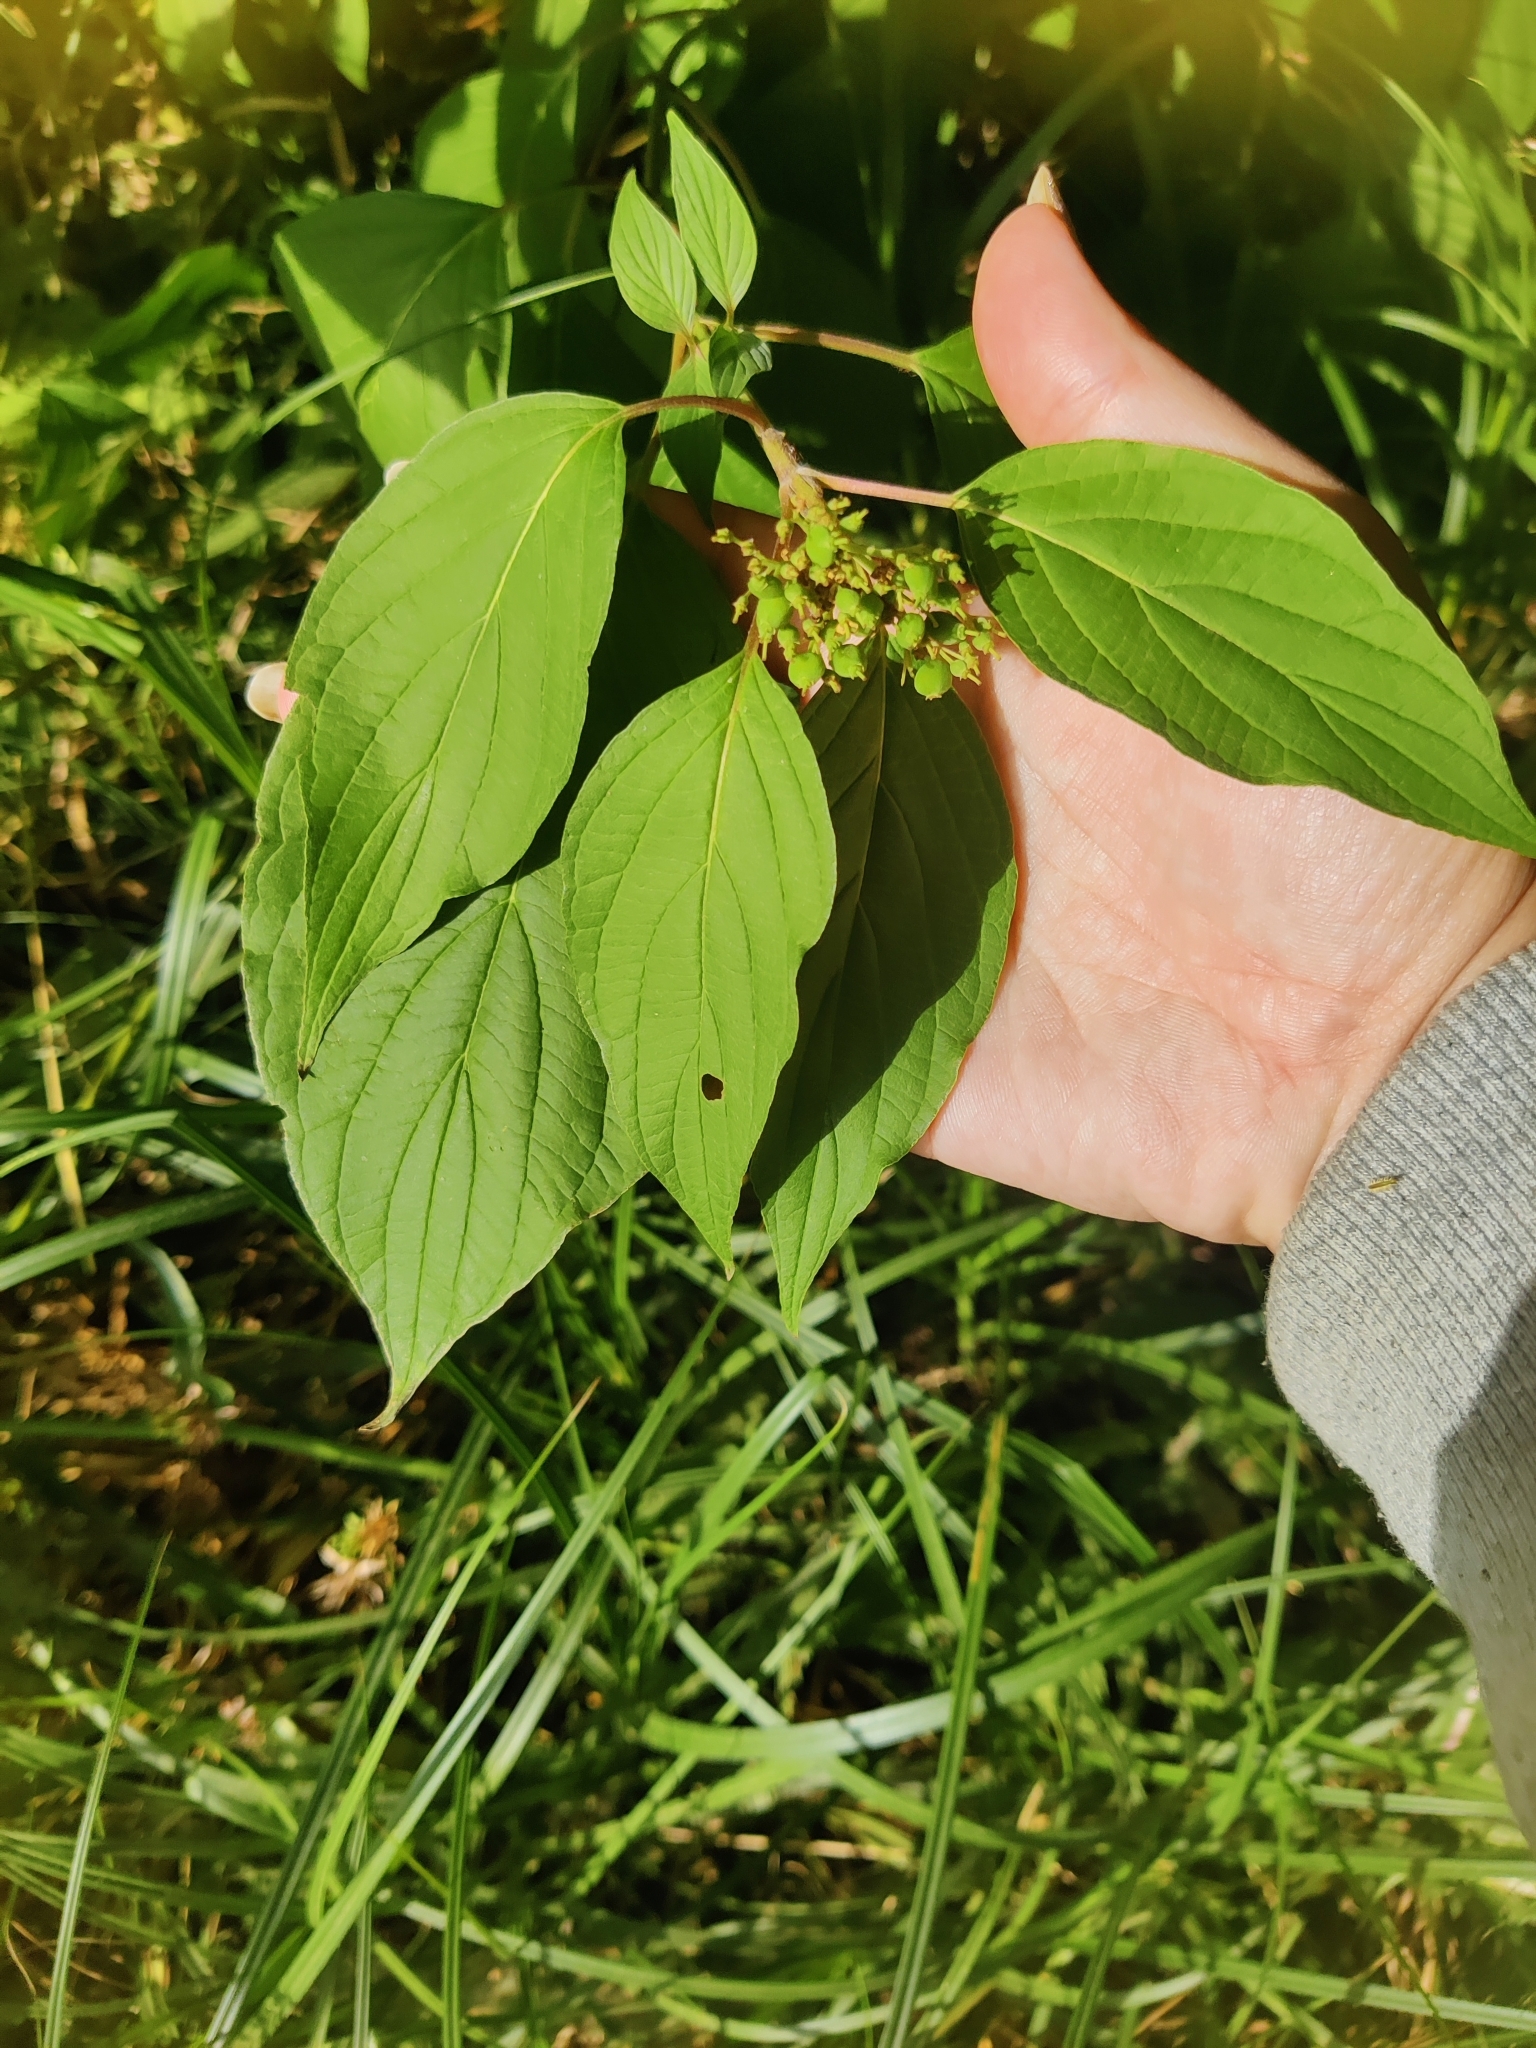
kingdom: Plantae
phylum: Tracheophyta
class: Magnoliopsida
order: Cornales
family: Cornaceae
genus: Cornus
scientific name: Cornus sericea
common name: Red-osier dogwood
